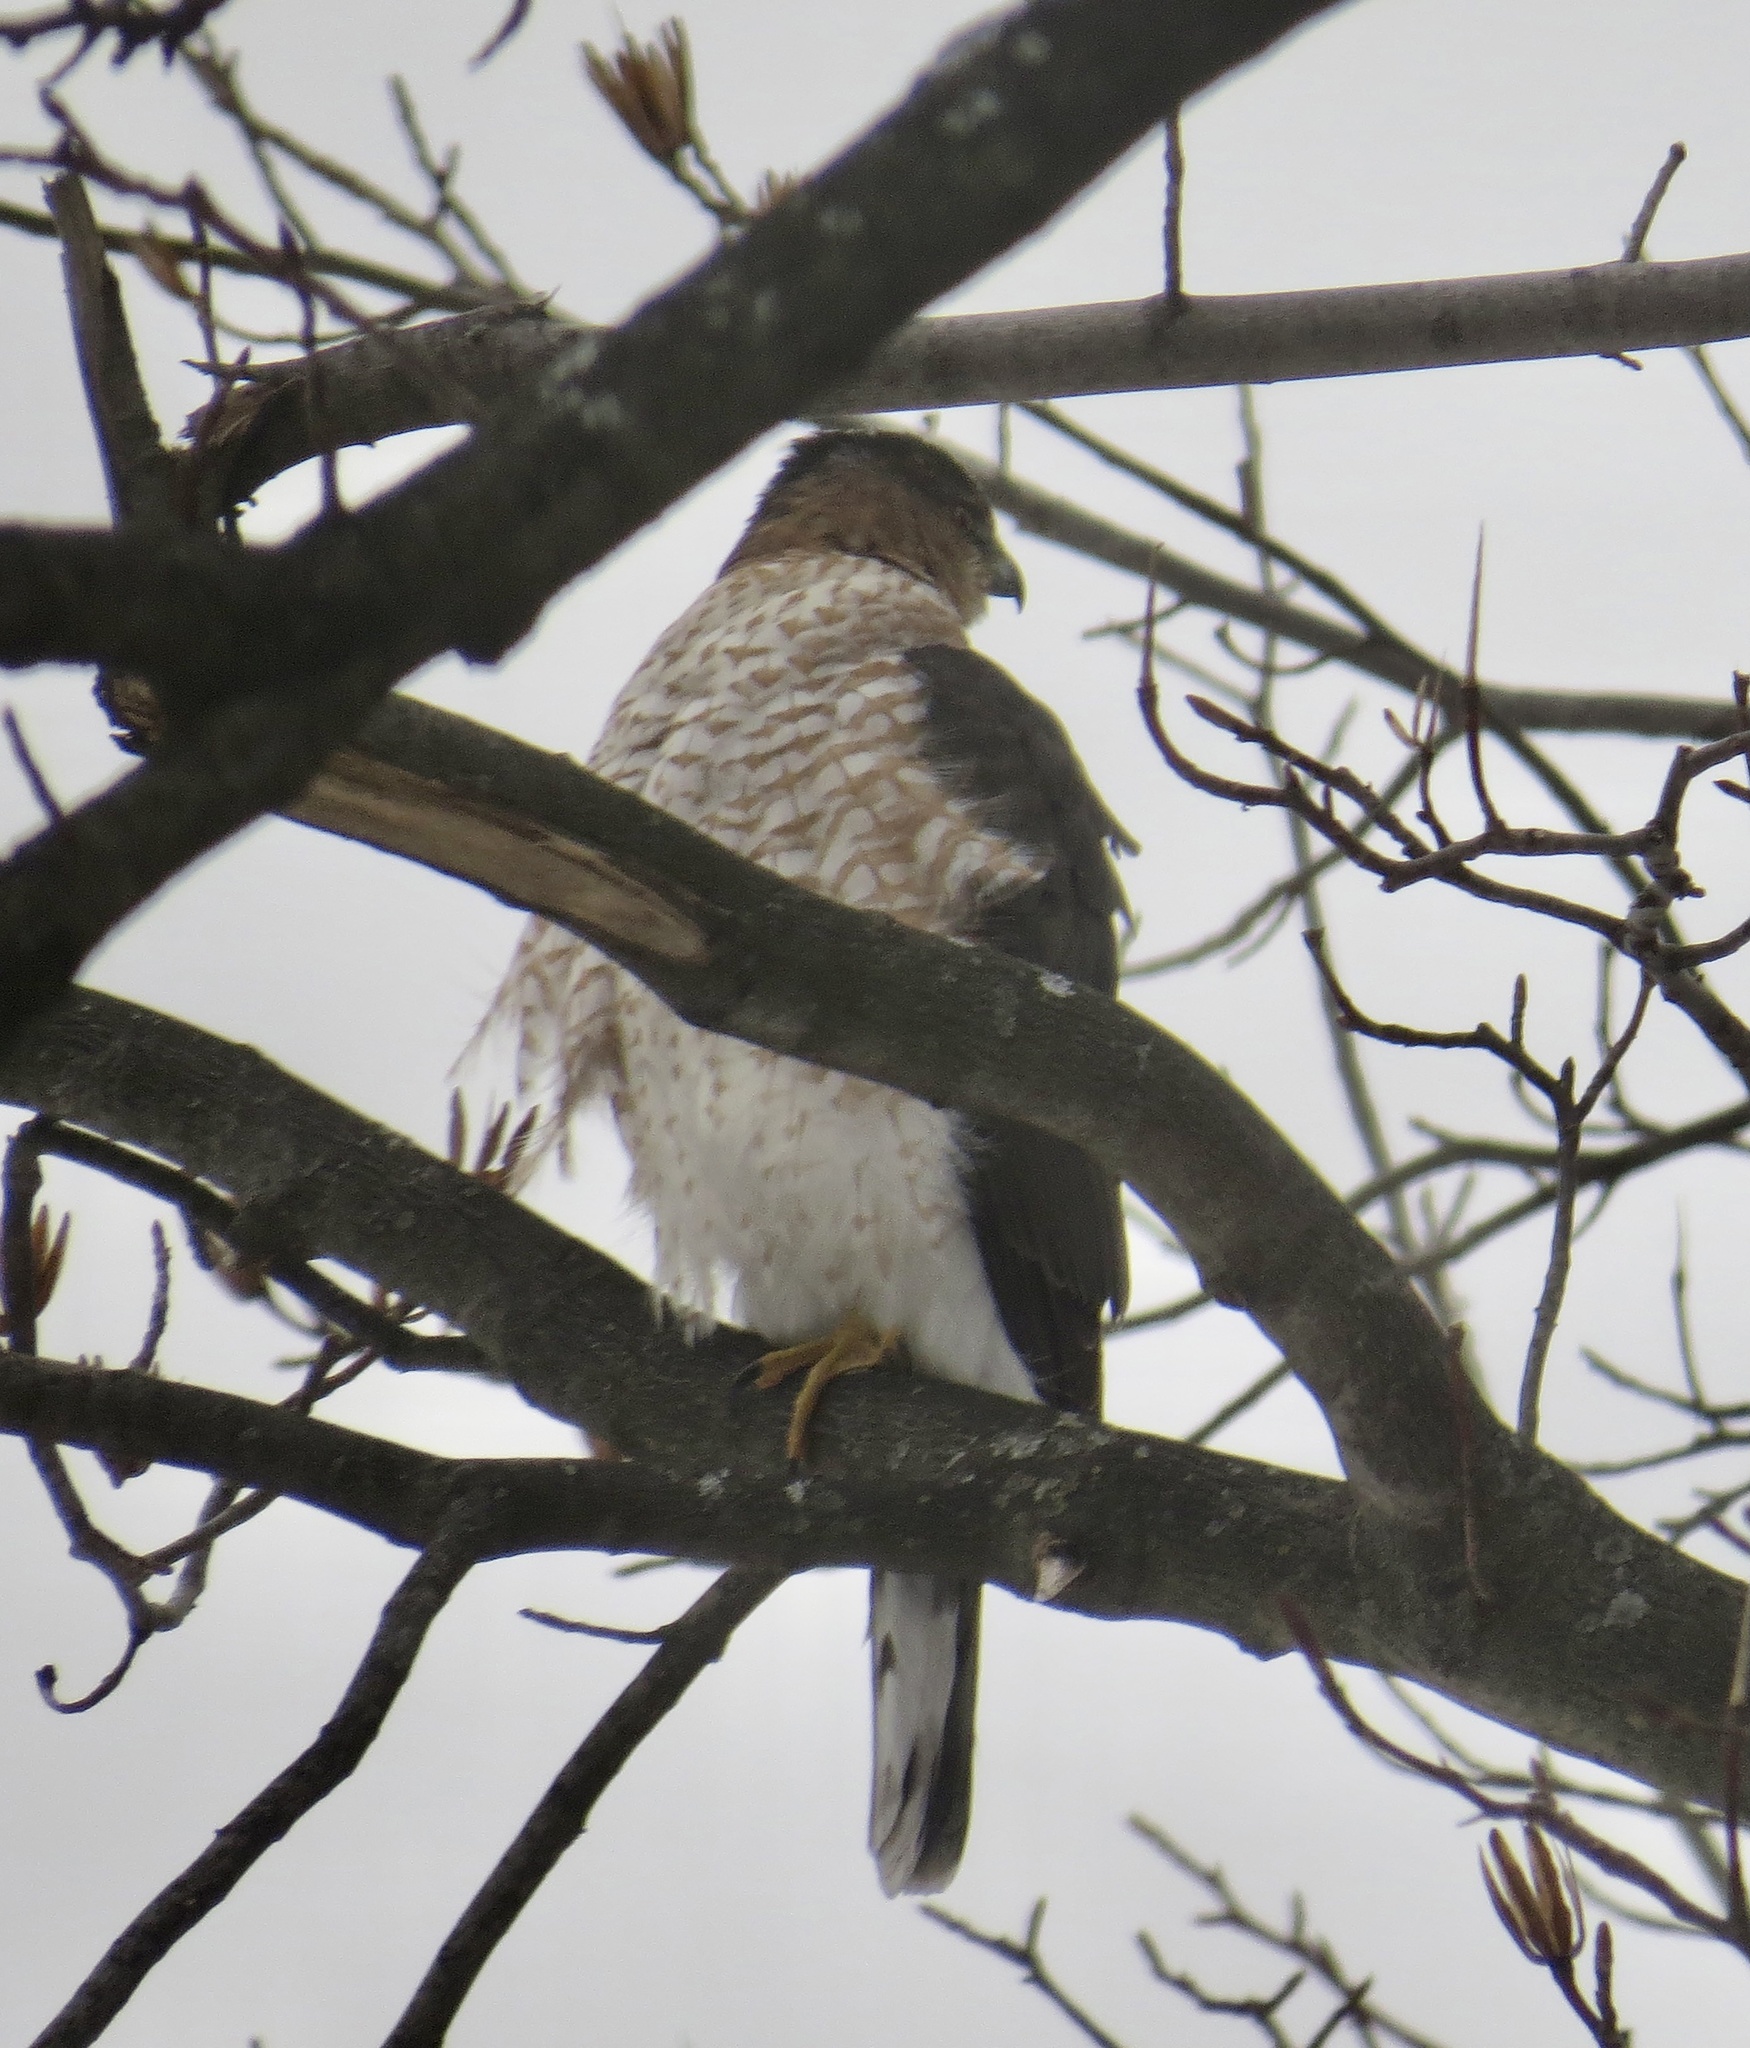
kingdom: Animalia
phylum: Chordata
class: Aves
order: Accipitriformes
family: Accipitridae
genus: Accipiter
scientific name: Accipiter cooperii
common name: Cooper's hawk
